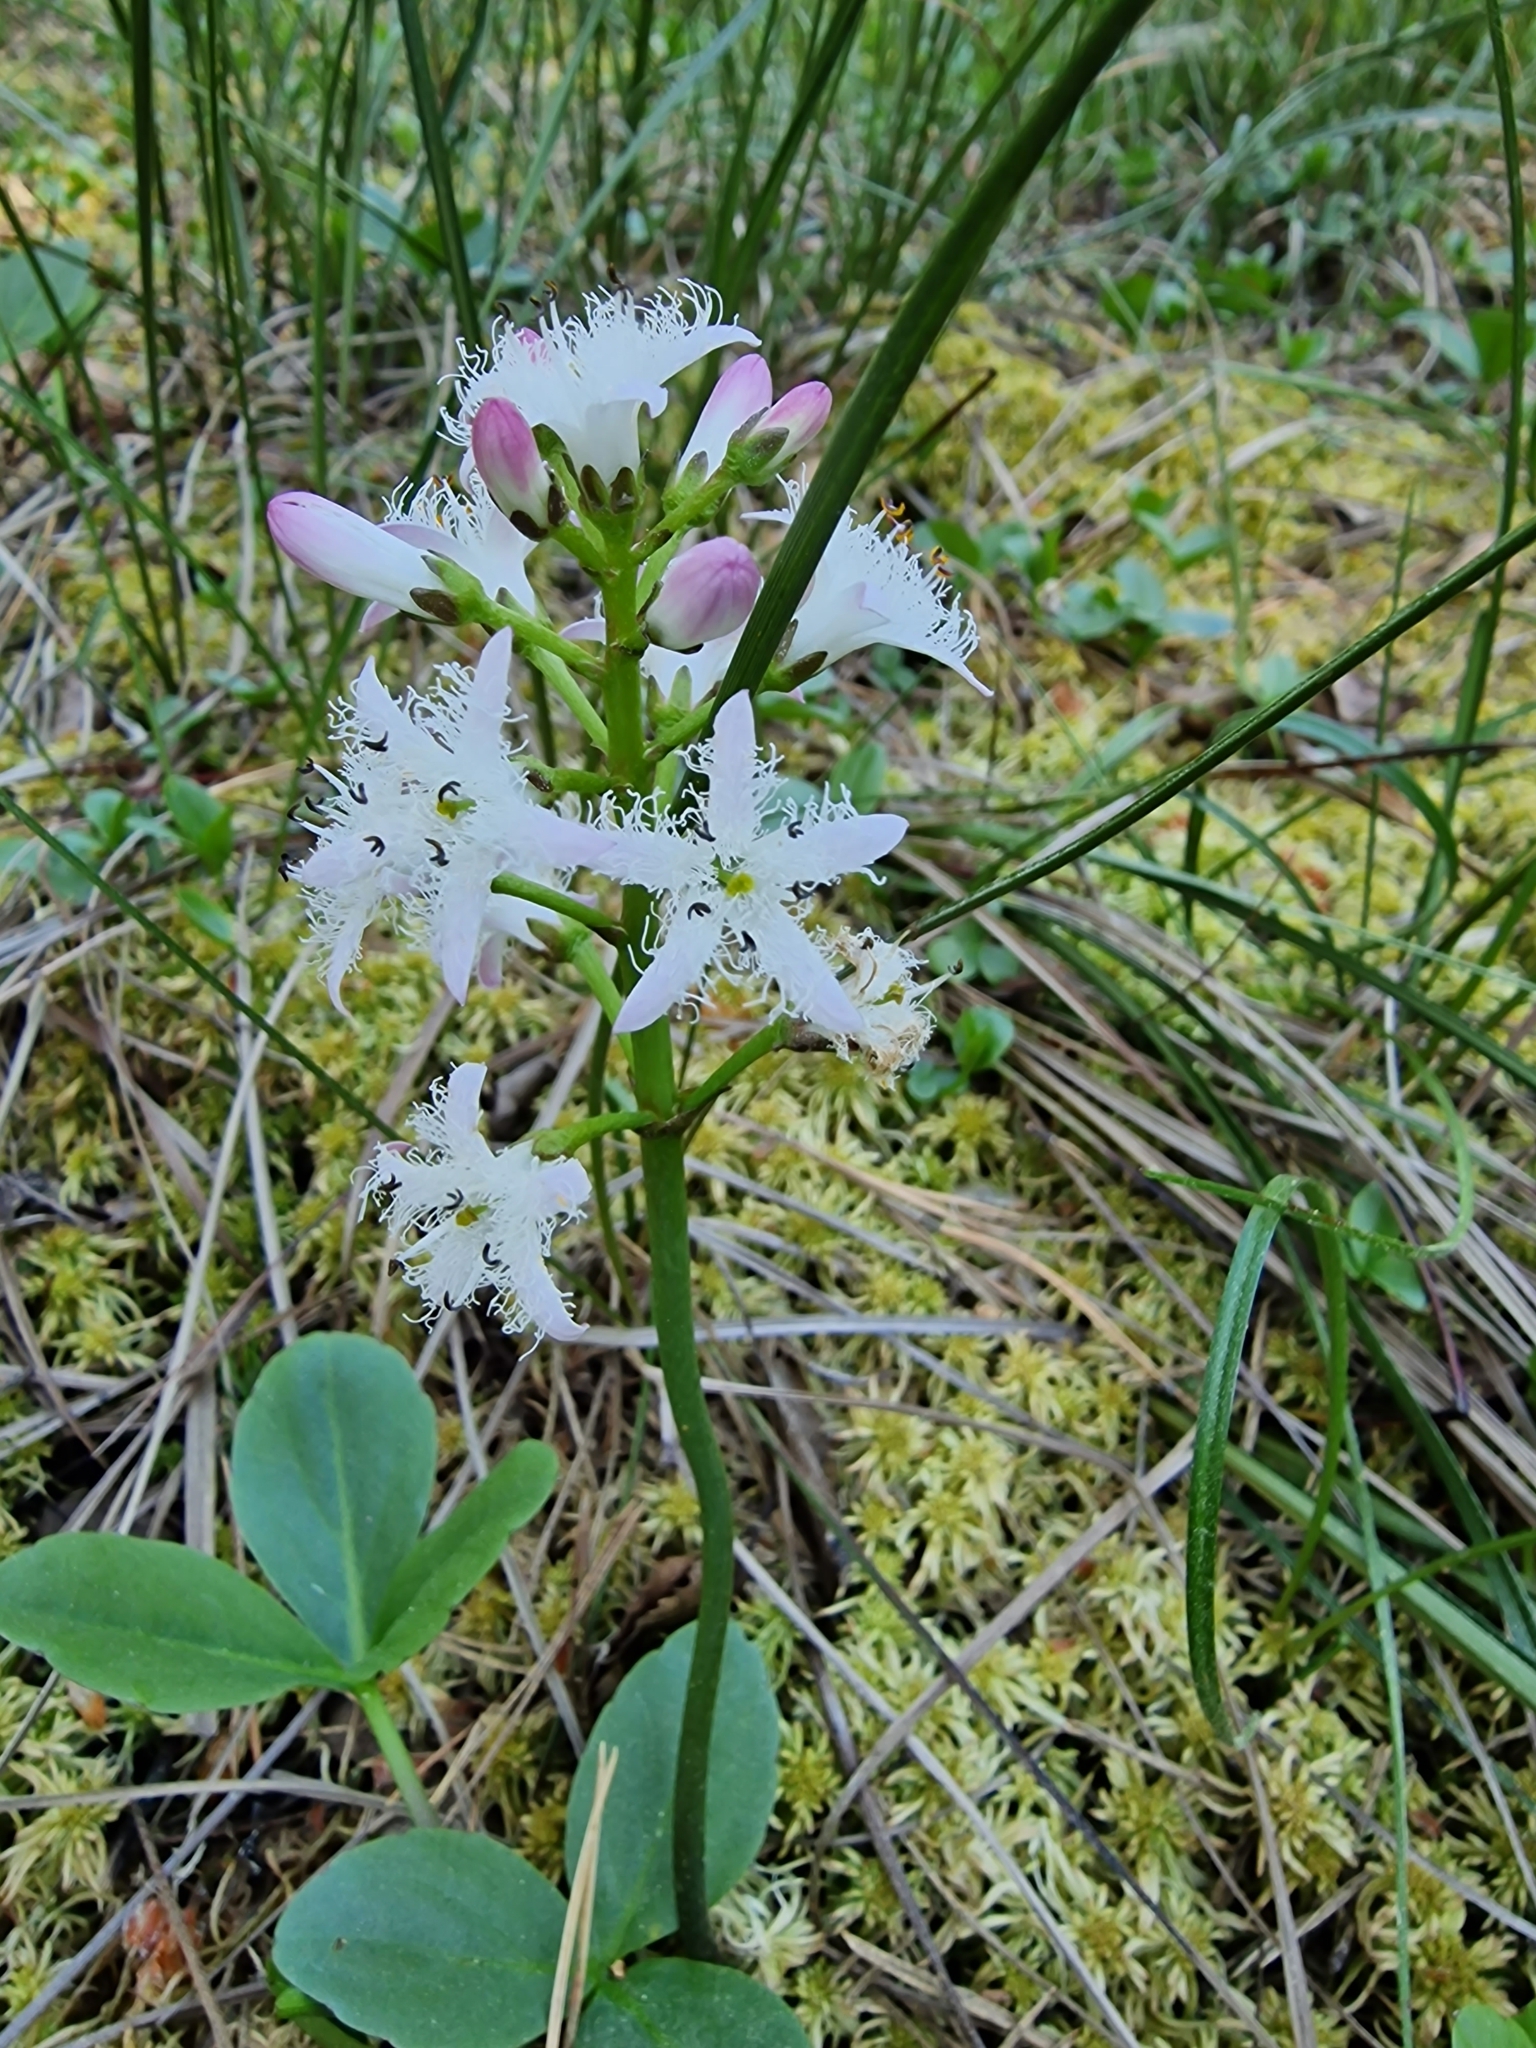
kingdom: Plantae
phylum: Tracheophyta
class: Magnoliopsida
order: Asterales
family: Menyanthaceae
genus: Menyanthes
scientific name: Menyanthes trifoliata
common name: Bogbean
